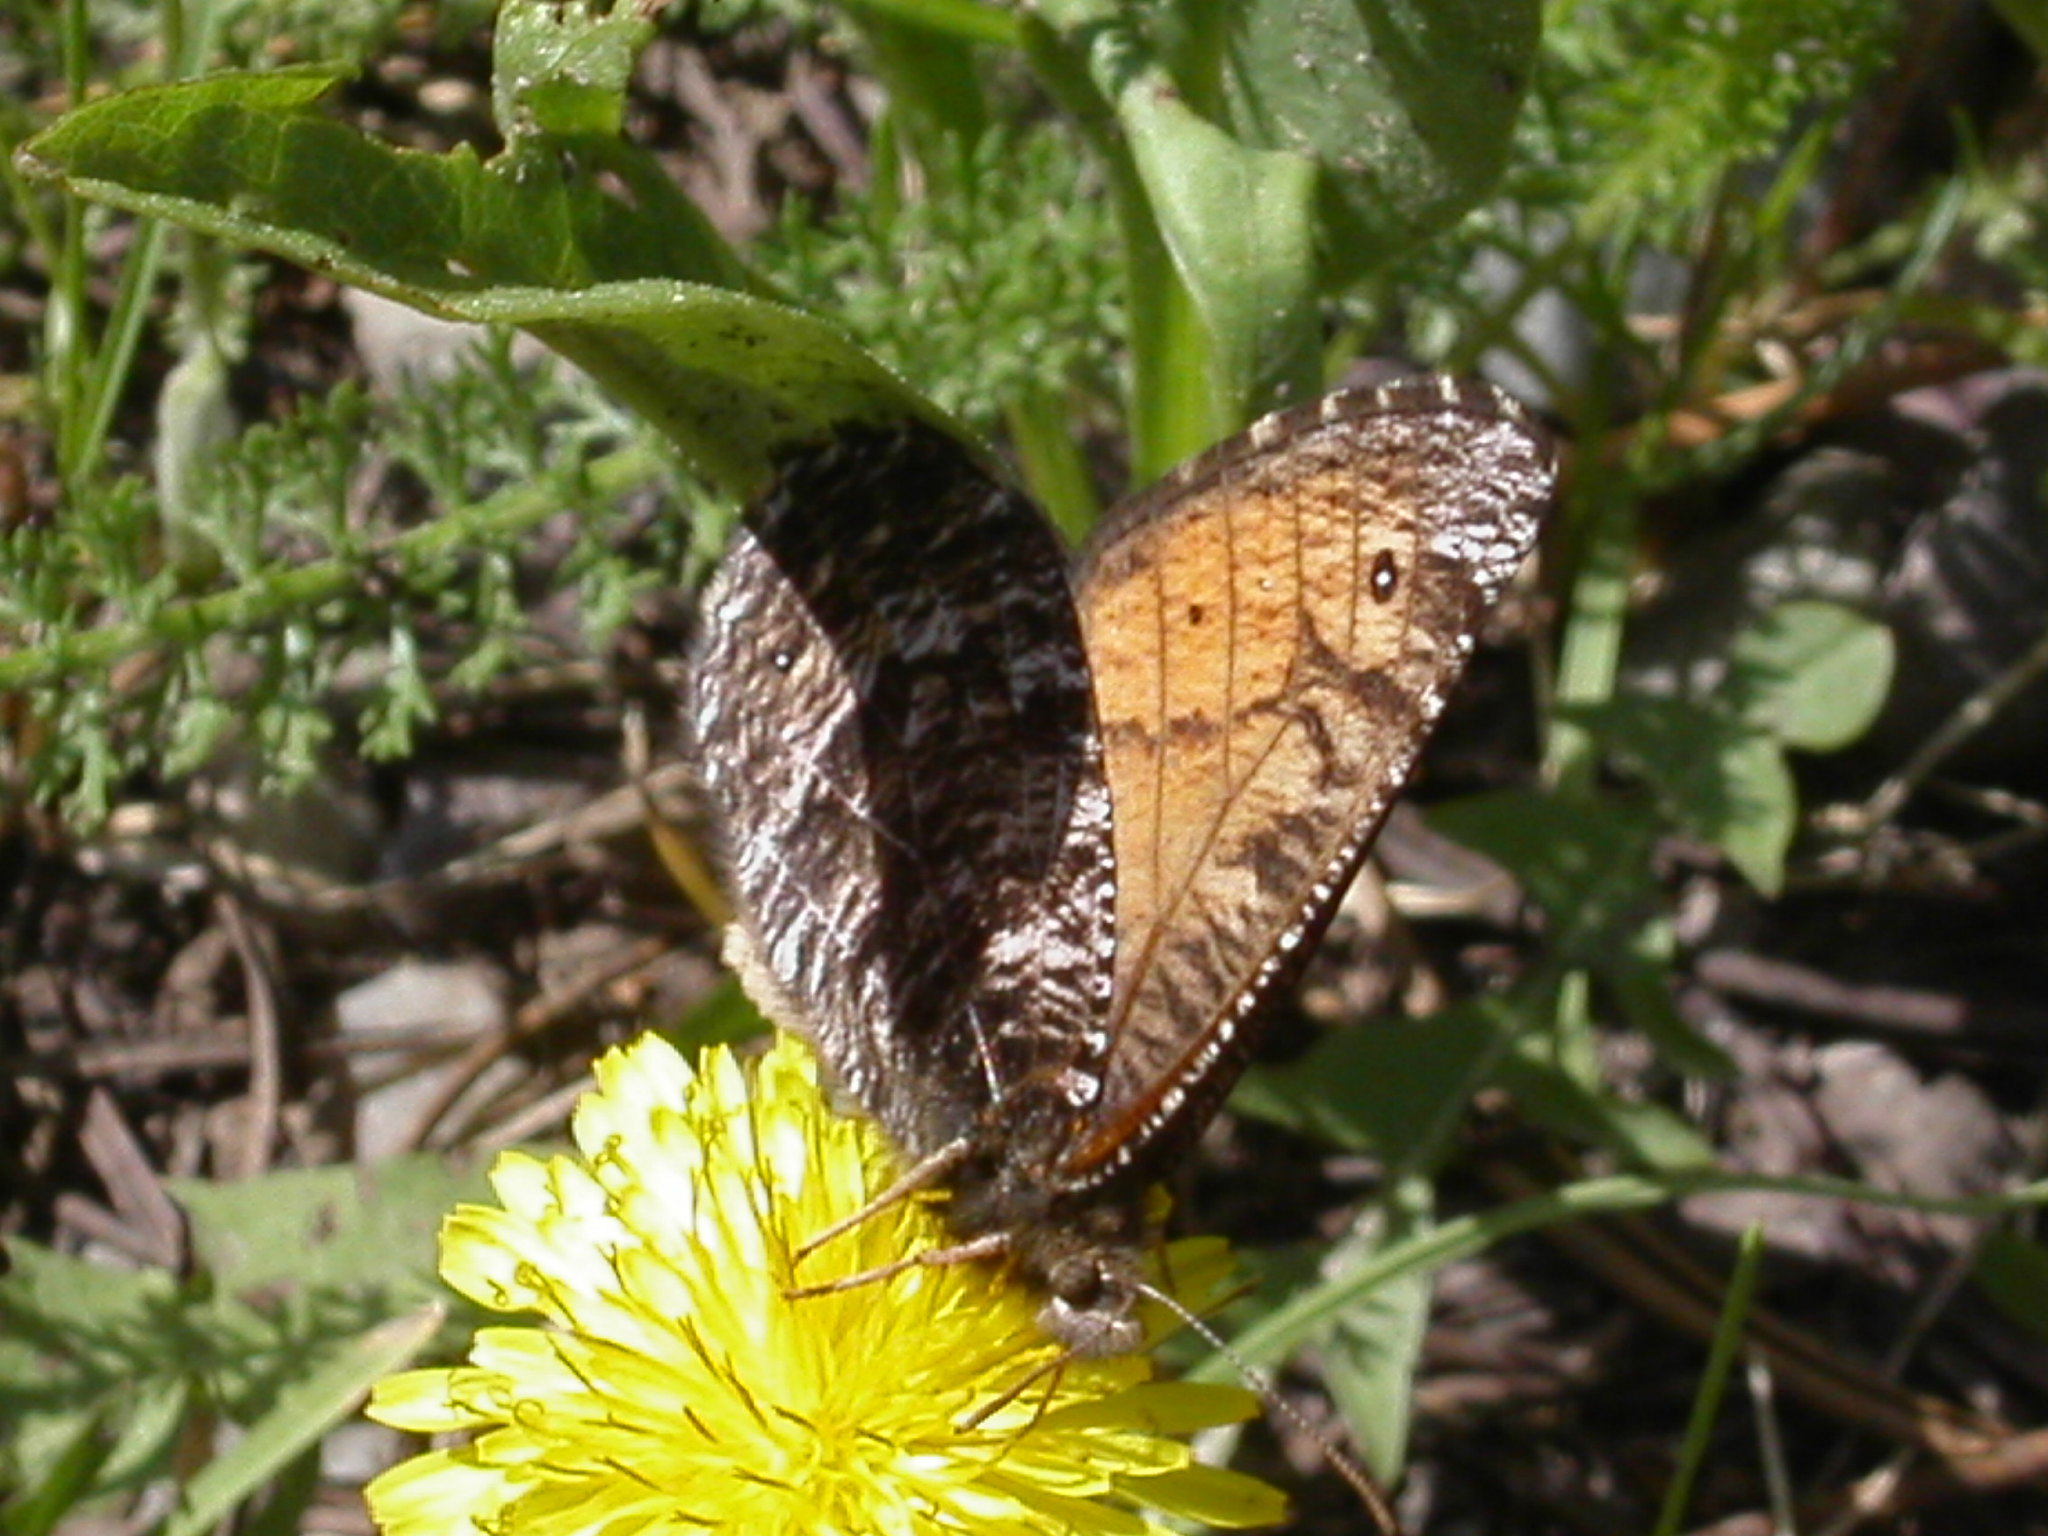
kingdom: Animalia
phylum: Arthropoda
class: Insecta
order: Lepidoptera
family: Nymphalidae
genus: Oeneis
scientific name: Oeneis chryxus
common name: Chryxus arctic
